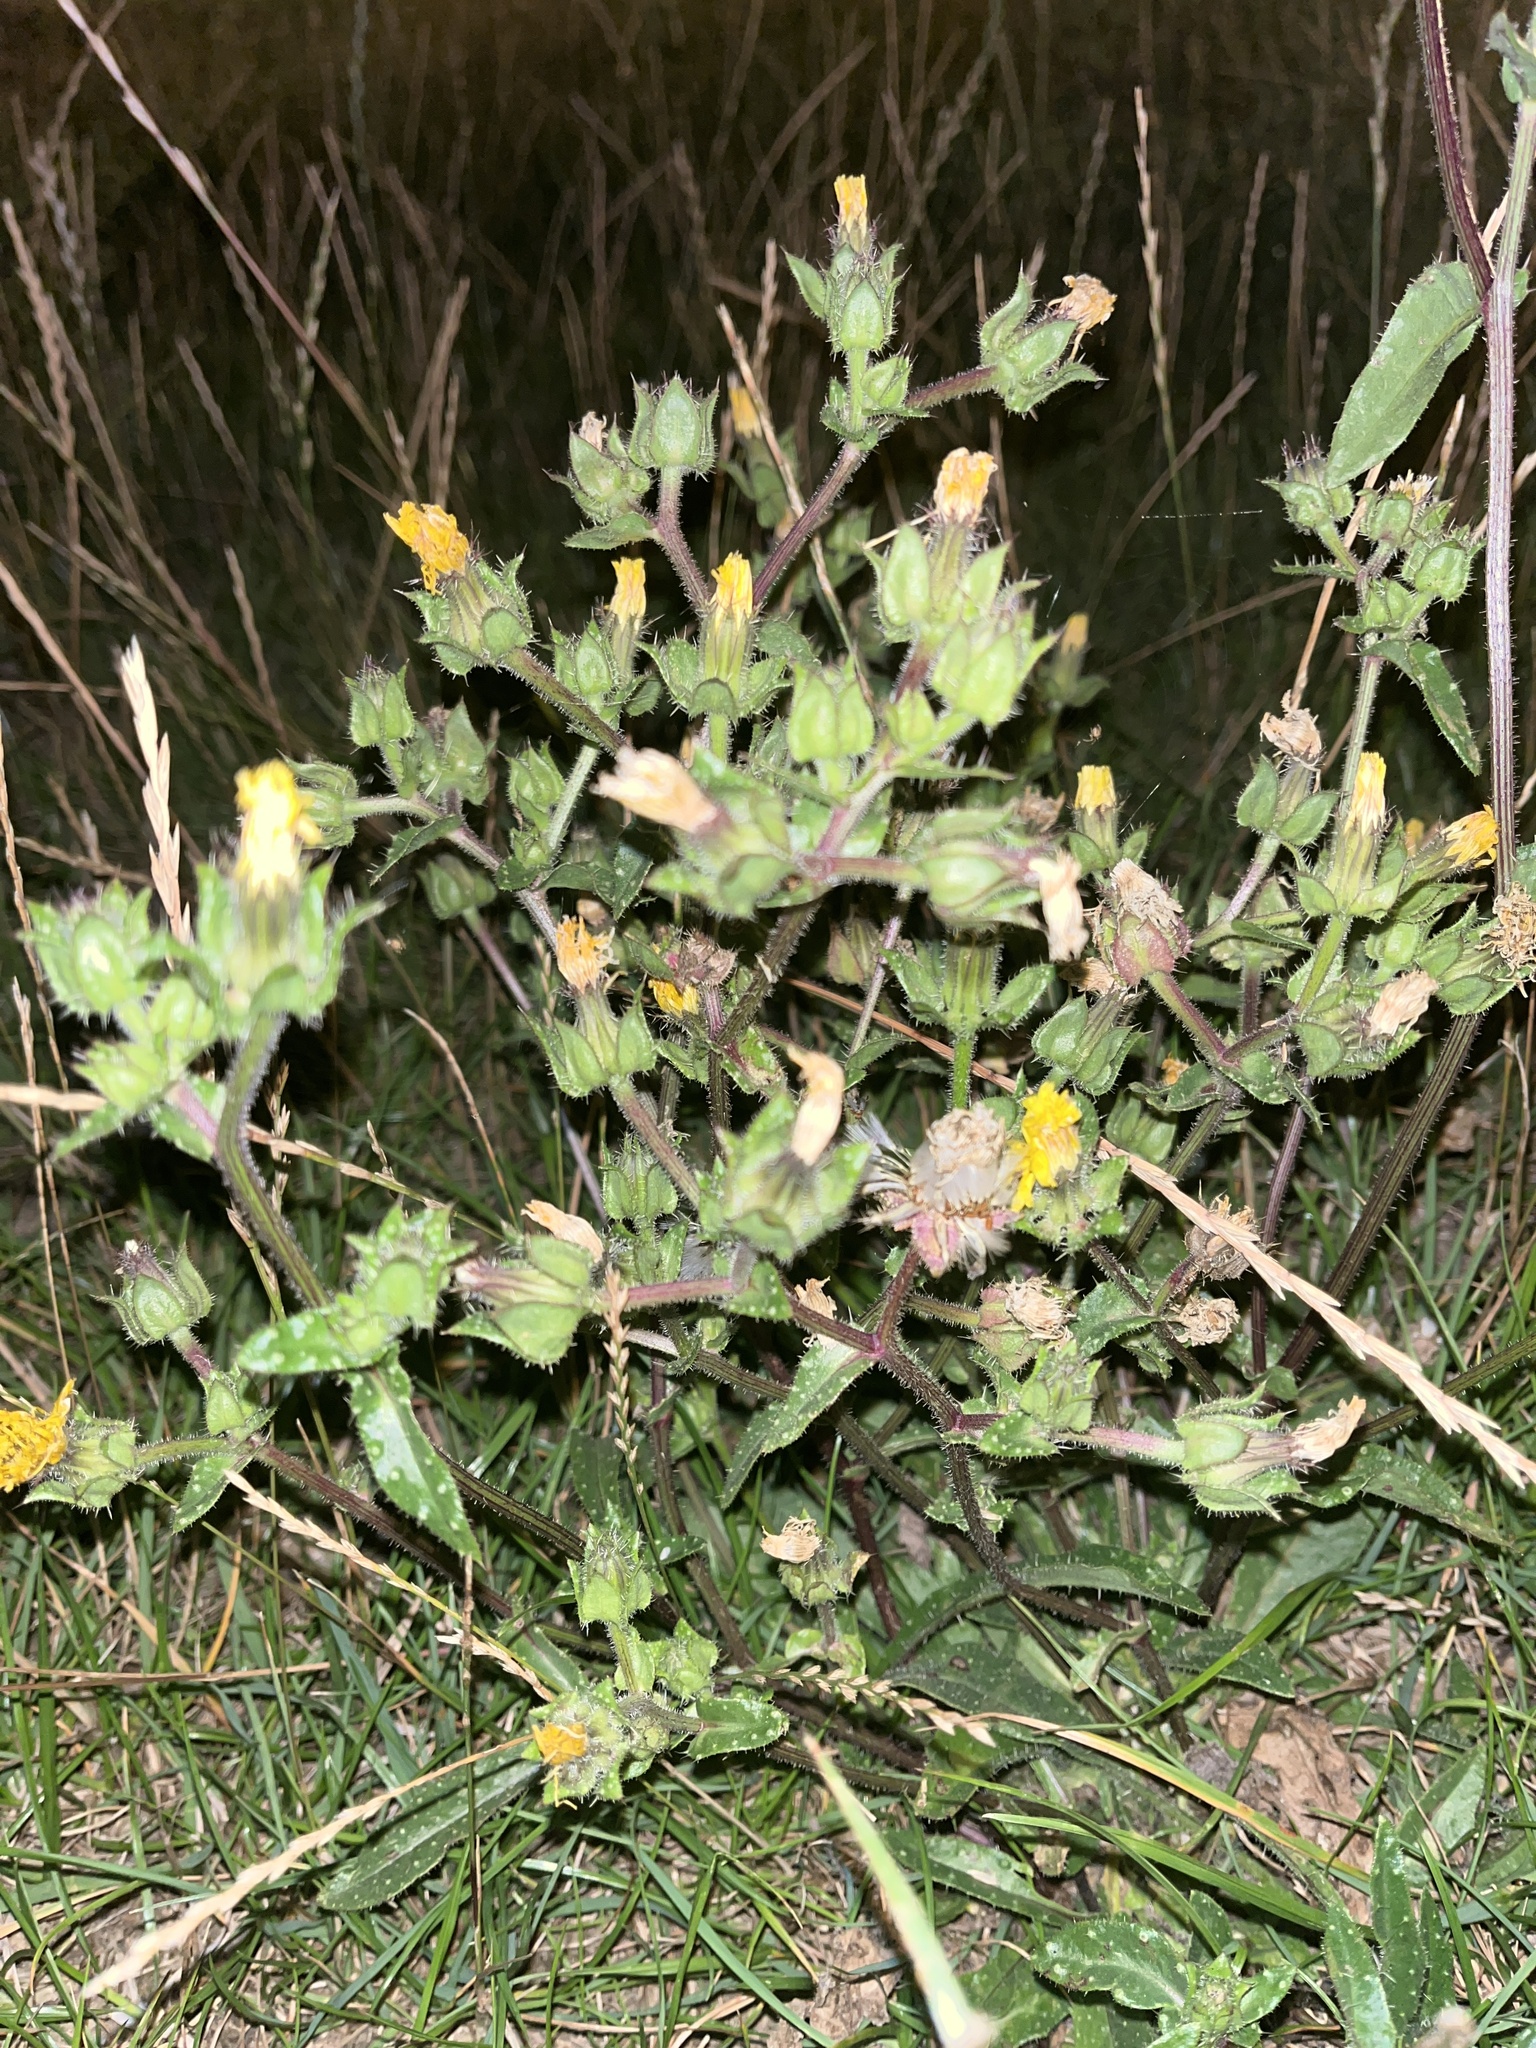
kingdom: Plantae
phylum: Tracheophyta
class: Magnoliopsida
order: Asterales
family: Asteraceae
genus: Helminthotheca
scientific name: Helminthotheca echioides
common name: Ox-tongue
